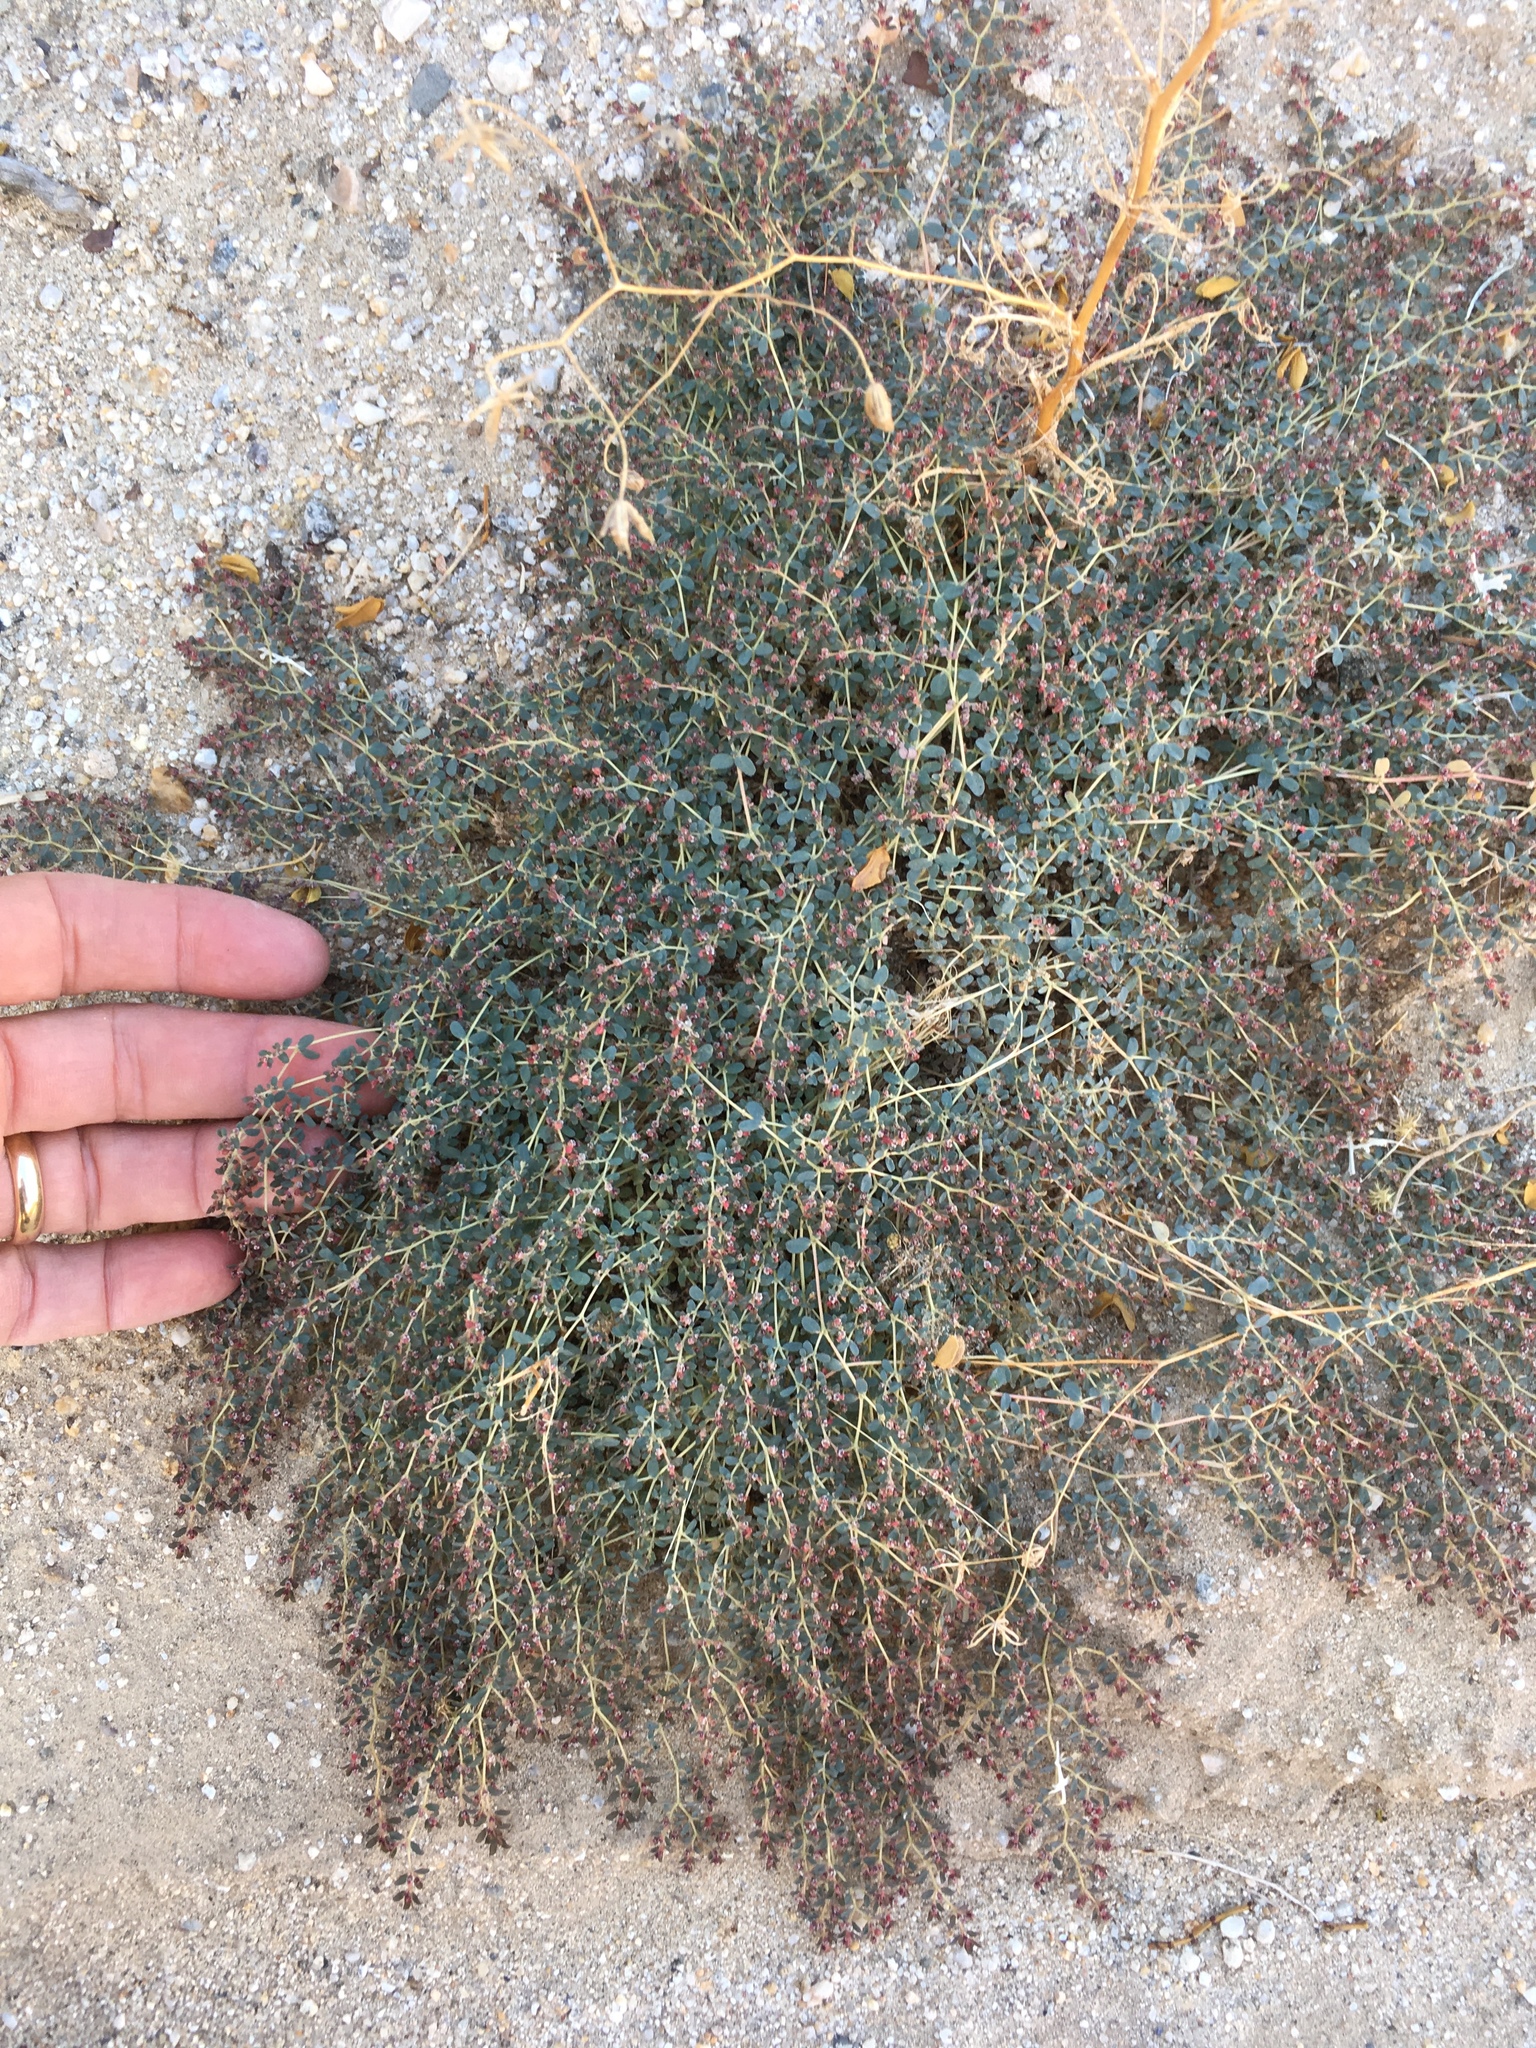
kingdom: Plantae
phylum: Tracheophyta
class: Magnoliopsida
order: Malpighiales
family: Euphorbiaceae
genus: Euphorbia
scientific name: Euphorbia polycarpa
